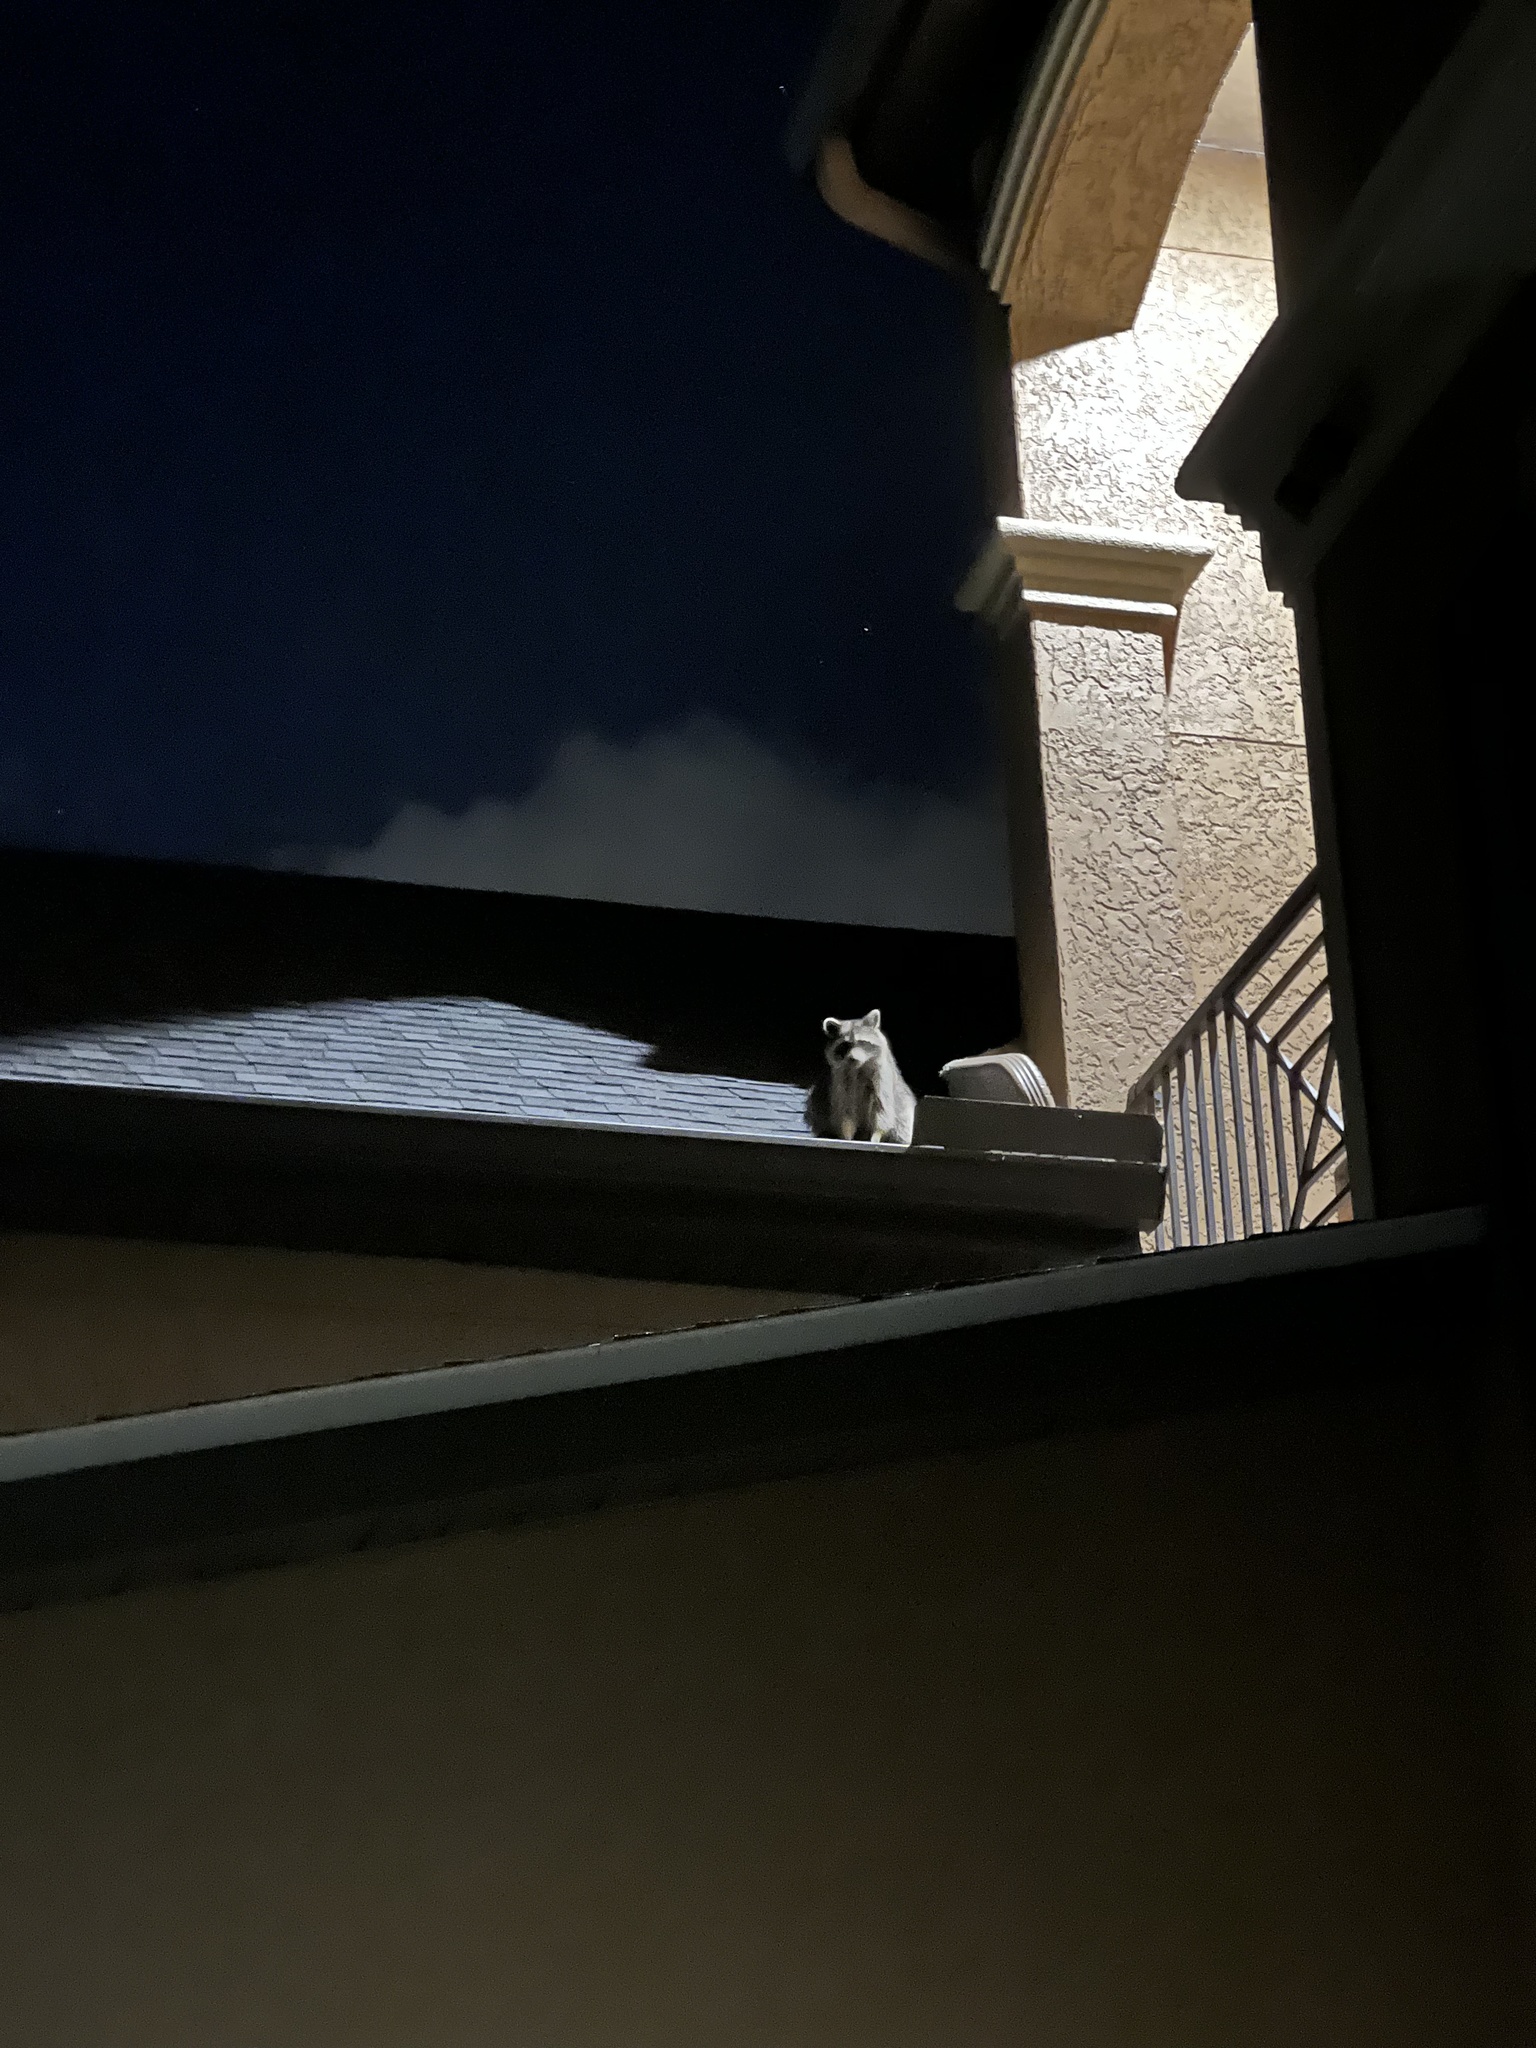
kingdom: Animalia
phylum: Chordata
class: Mammalia
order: Carnivora
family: Procyonidae
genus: Procyon
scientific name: Procyon lotor
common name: Raccoon
